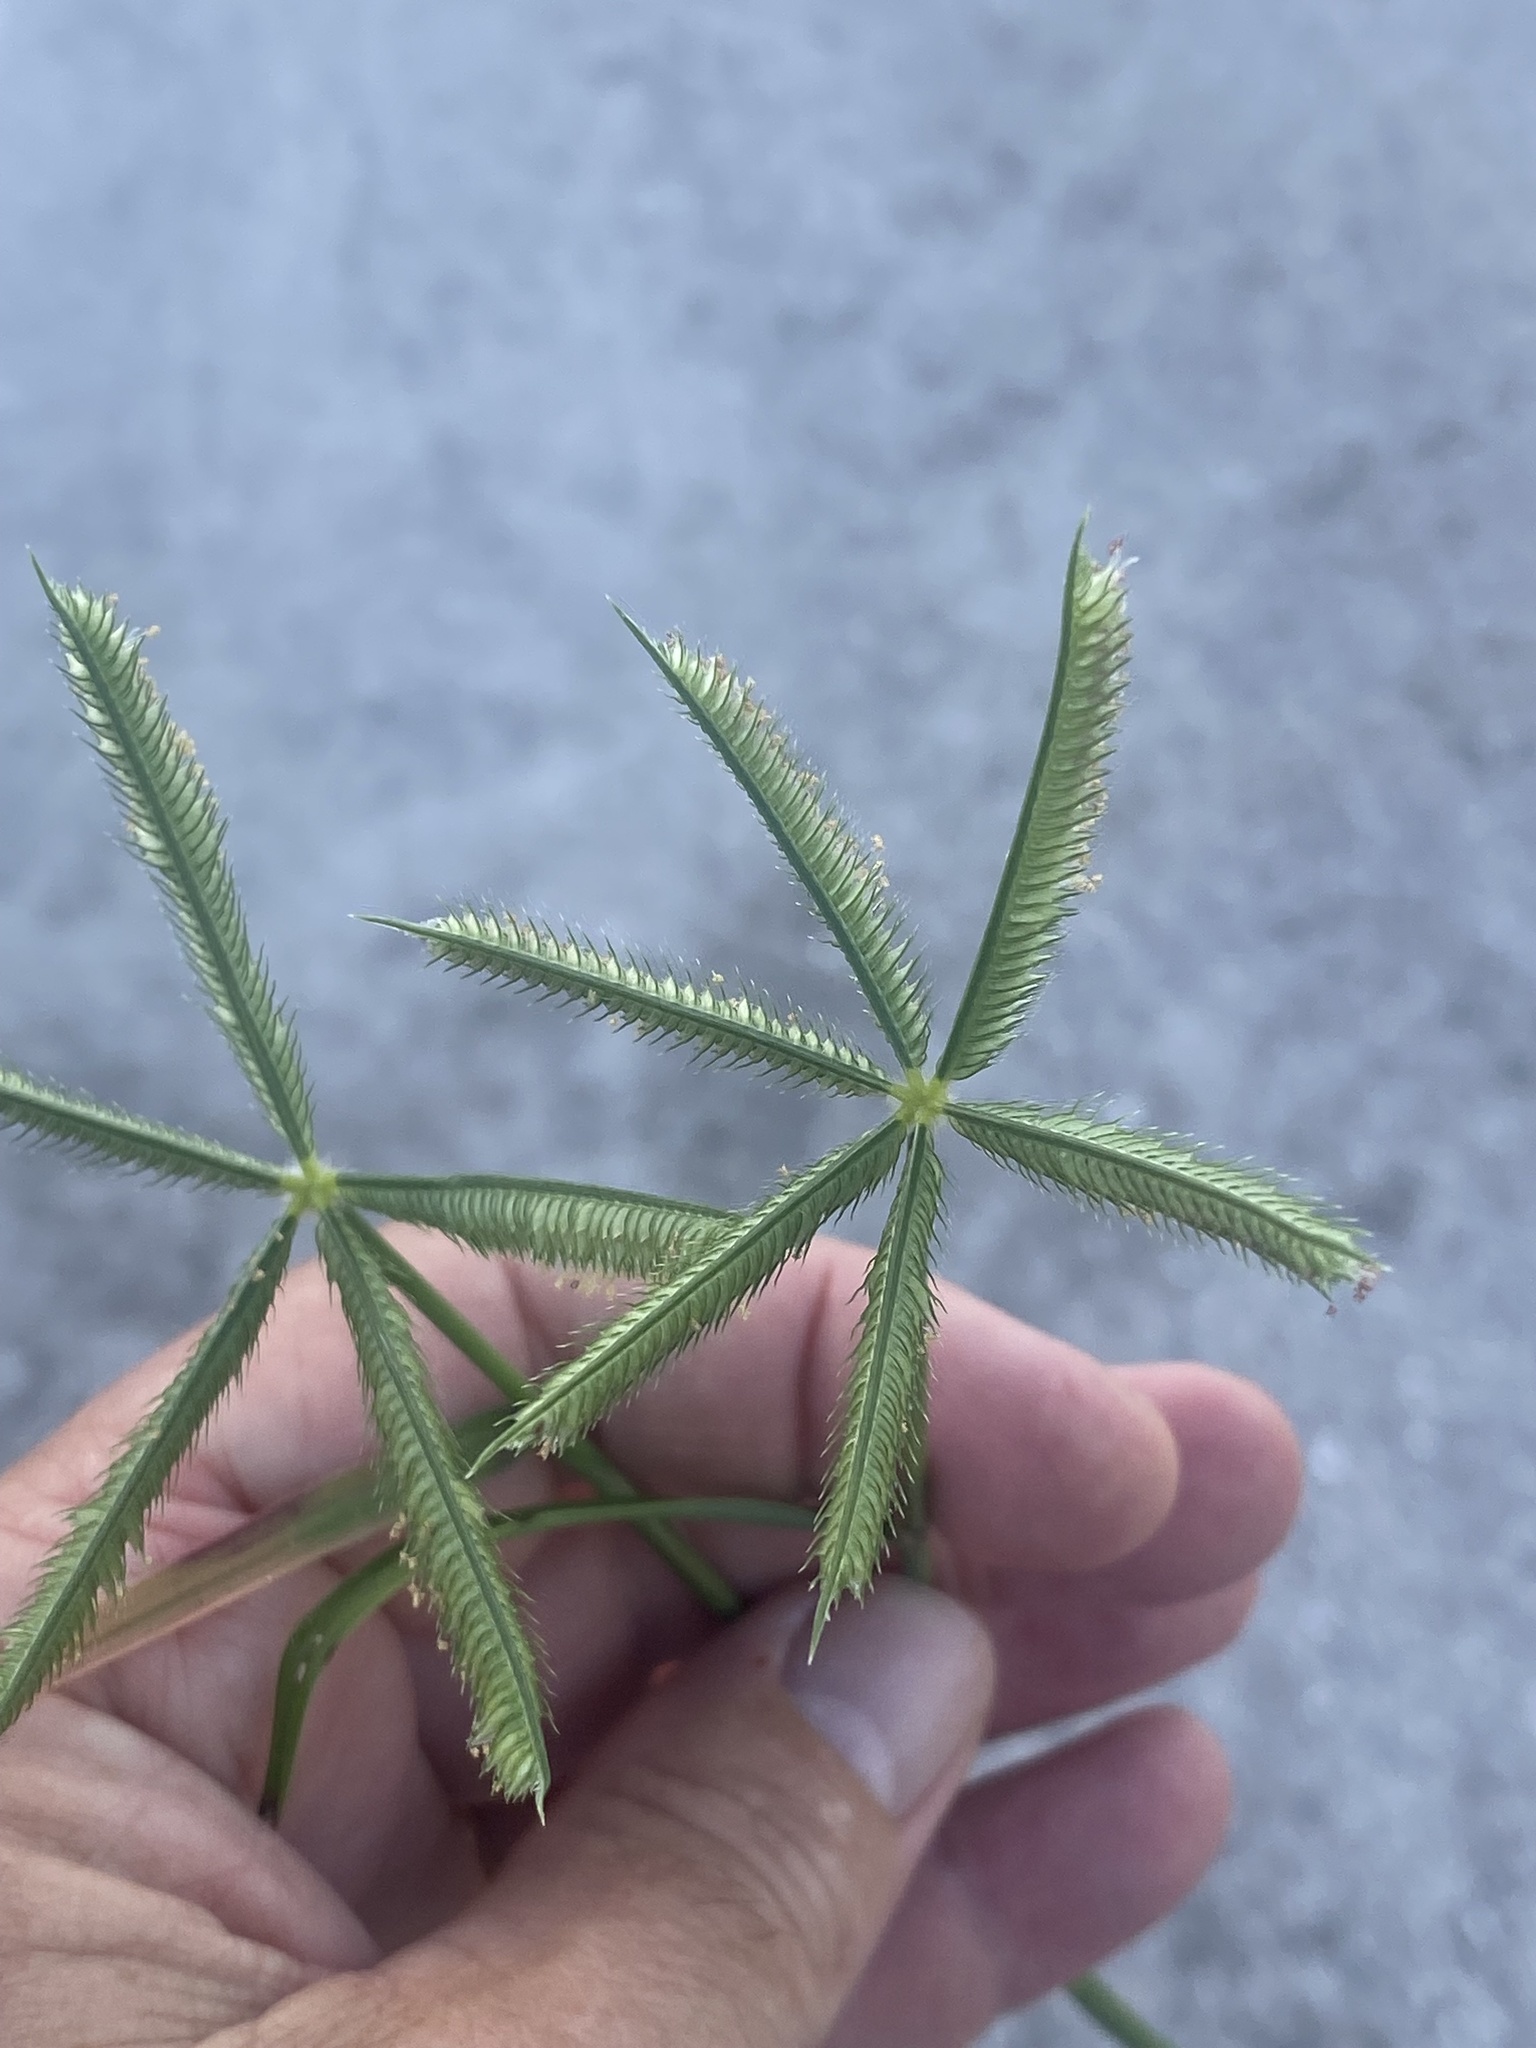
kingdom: Plantae
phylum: Tracheophyta
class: Liliopsida
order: Poales
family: Poaceae
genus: Dactyloctenium
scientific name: Dactyloctenium aegyptium
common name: Egyptian grass
